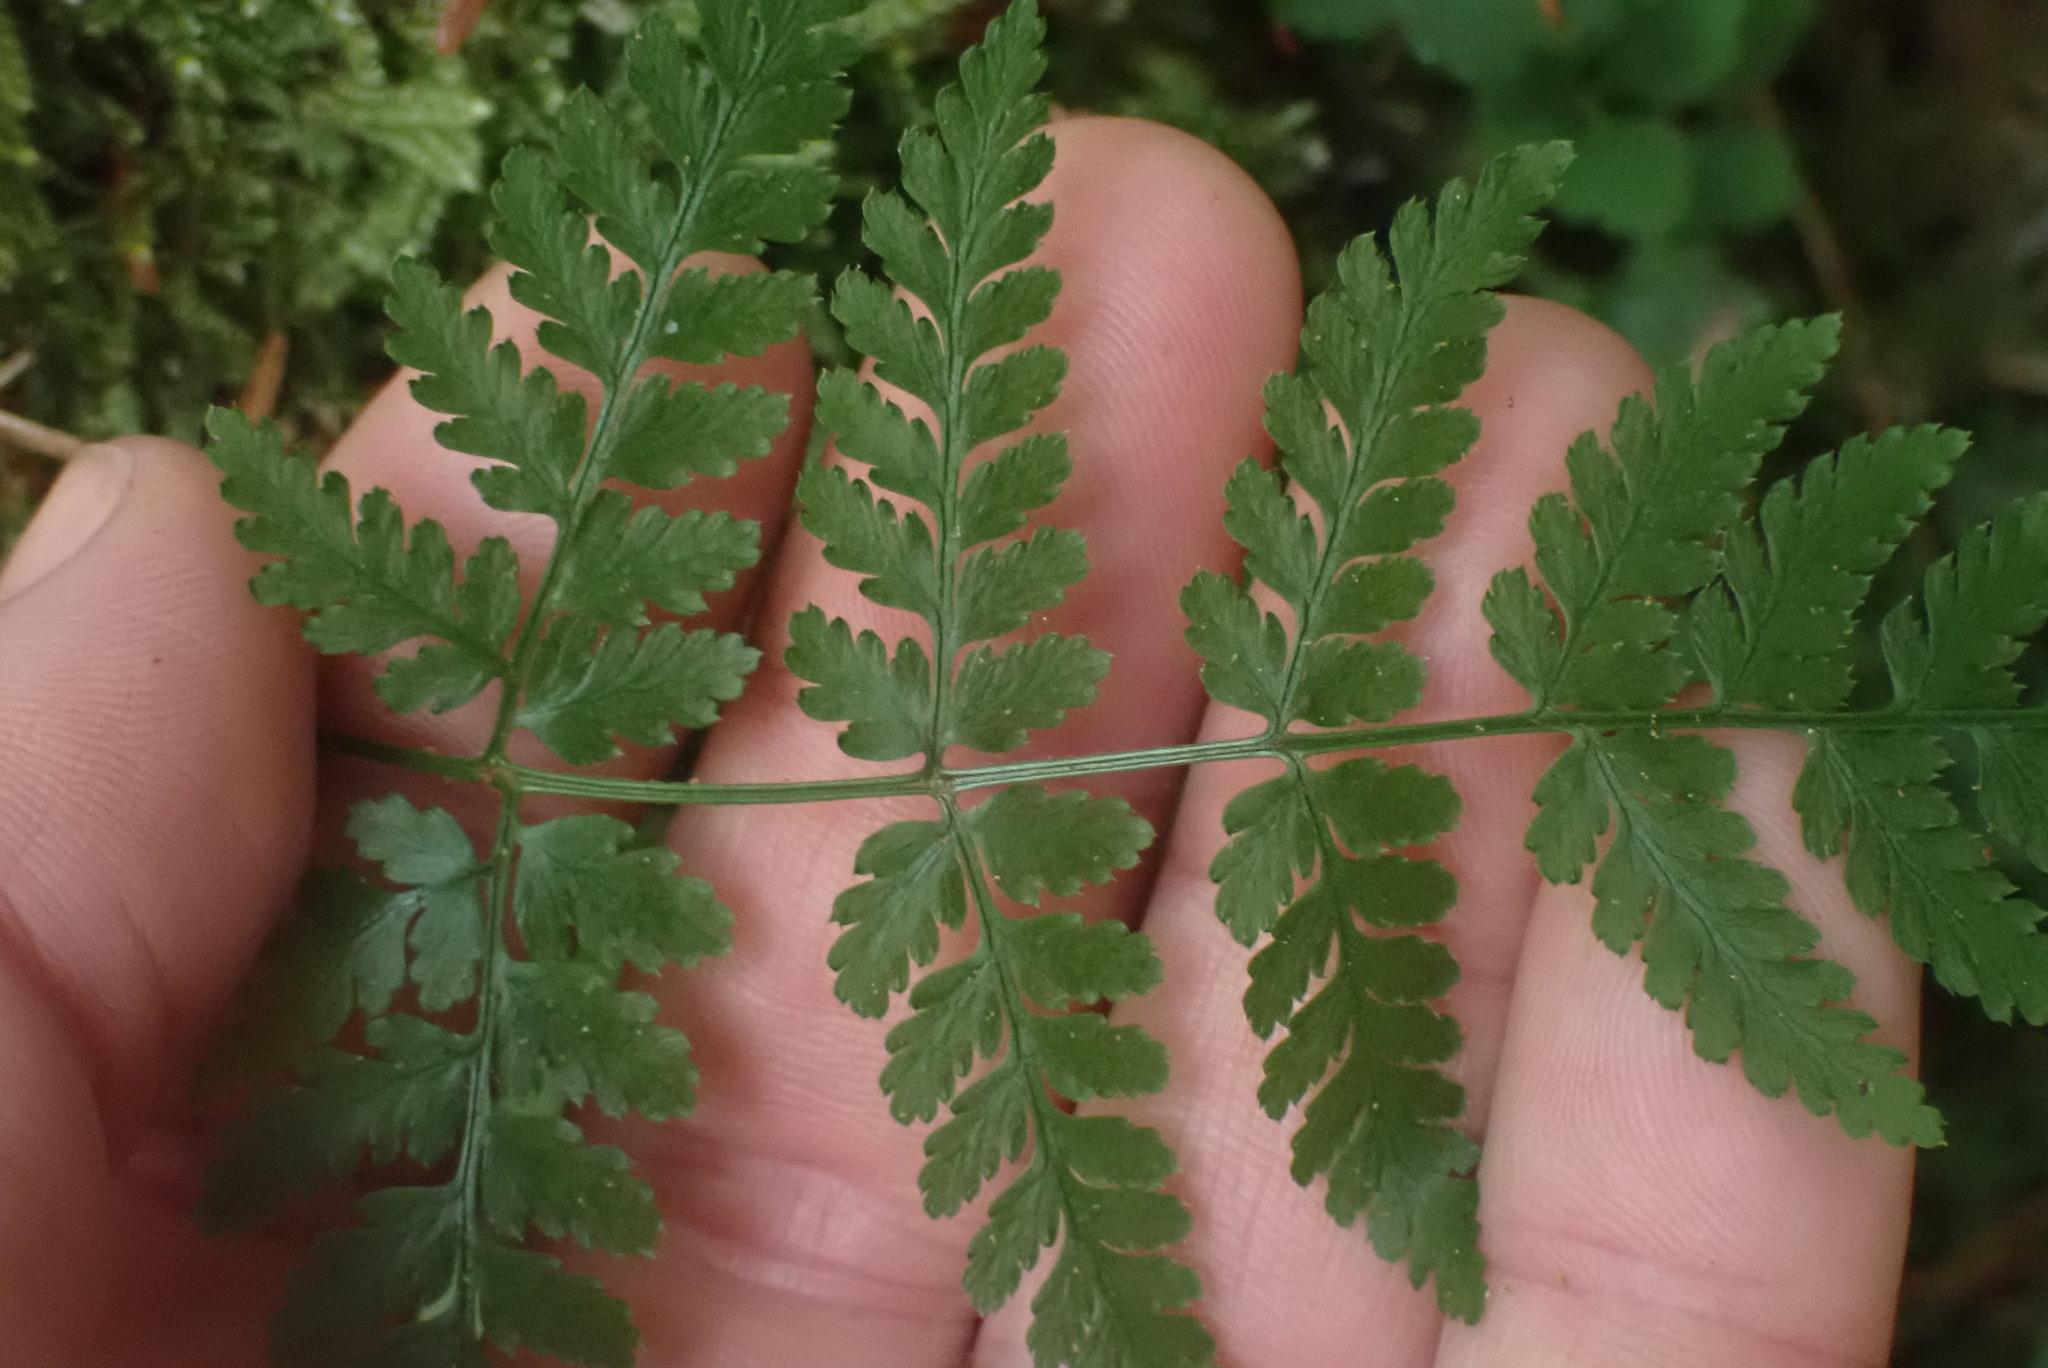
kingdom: Plantae
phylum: Tracheophyta
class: Polypodiopsida
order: Polypodiales
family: Dryopteridaceae
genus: Dryopteris
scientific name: Dryopteris expansa
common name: Northern buckler fern
